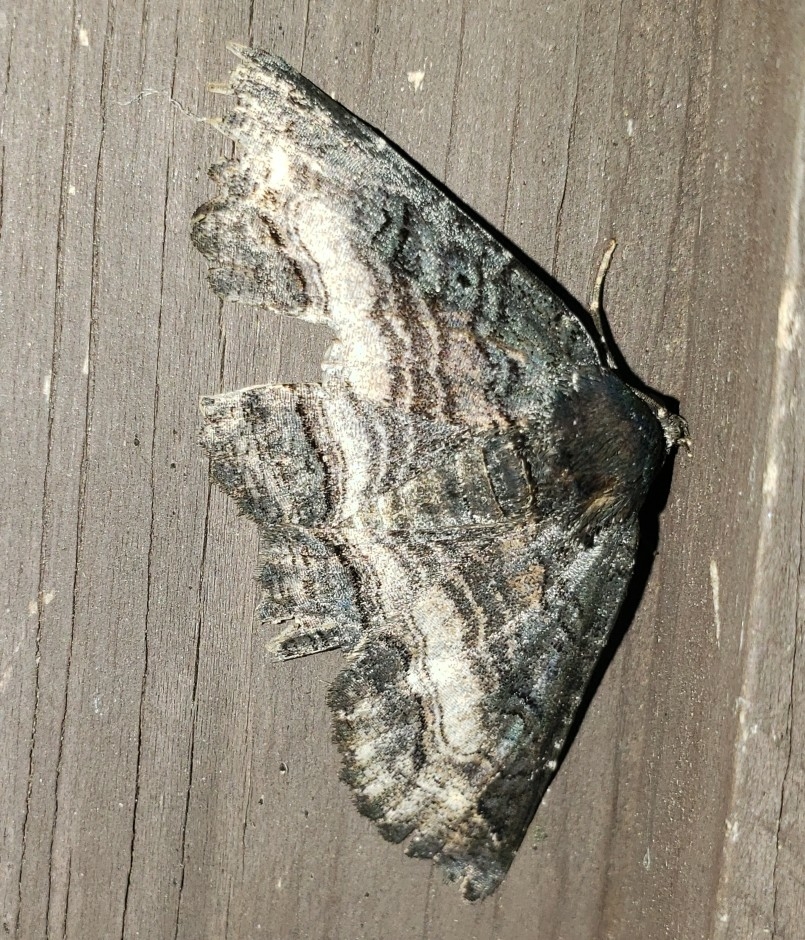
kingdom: Animalia
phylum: Arthropoda
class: Insecta
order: Lepidoptera
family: Erebidae
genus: Zale
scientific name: Zale undularis
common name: Black zale moth
